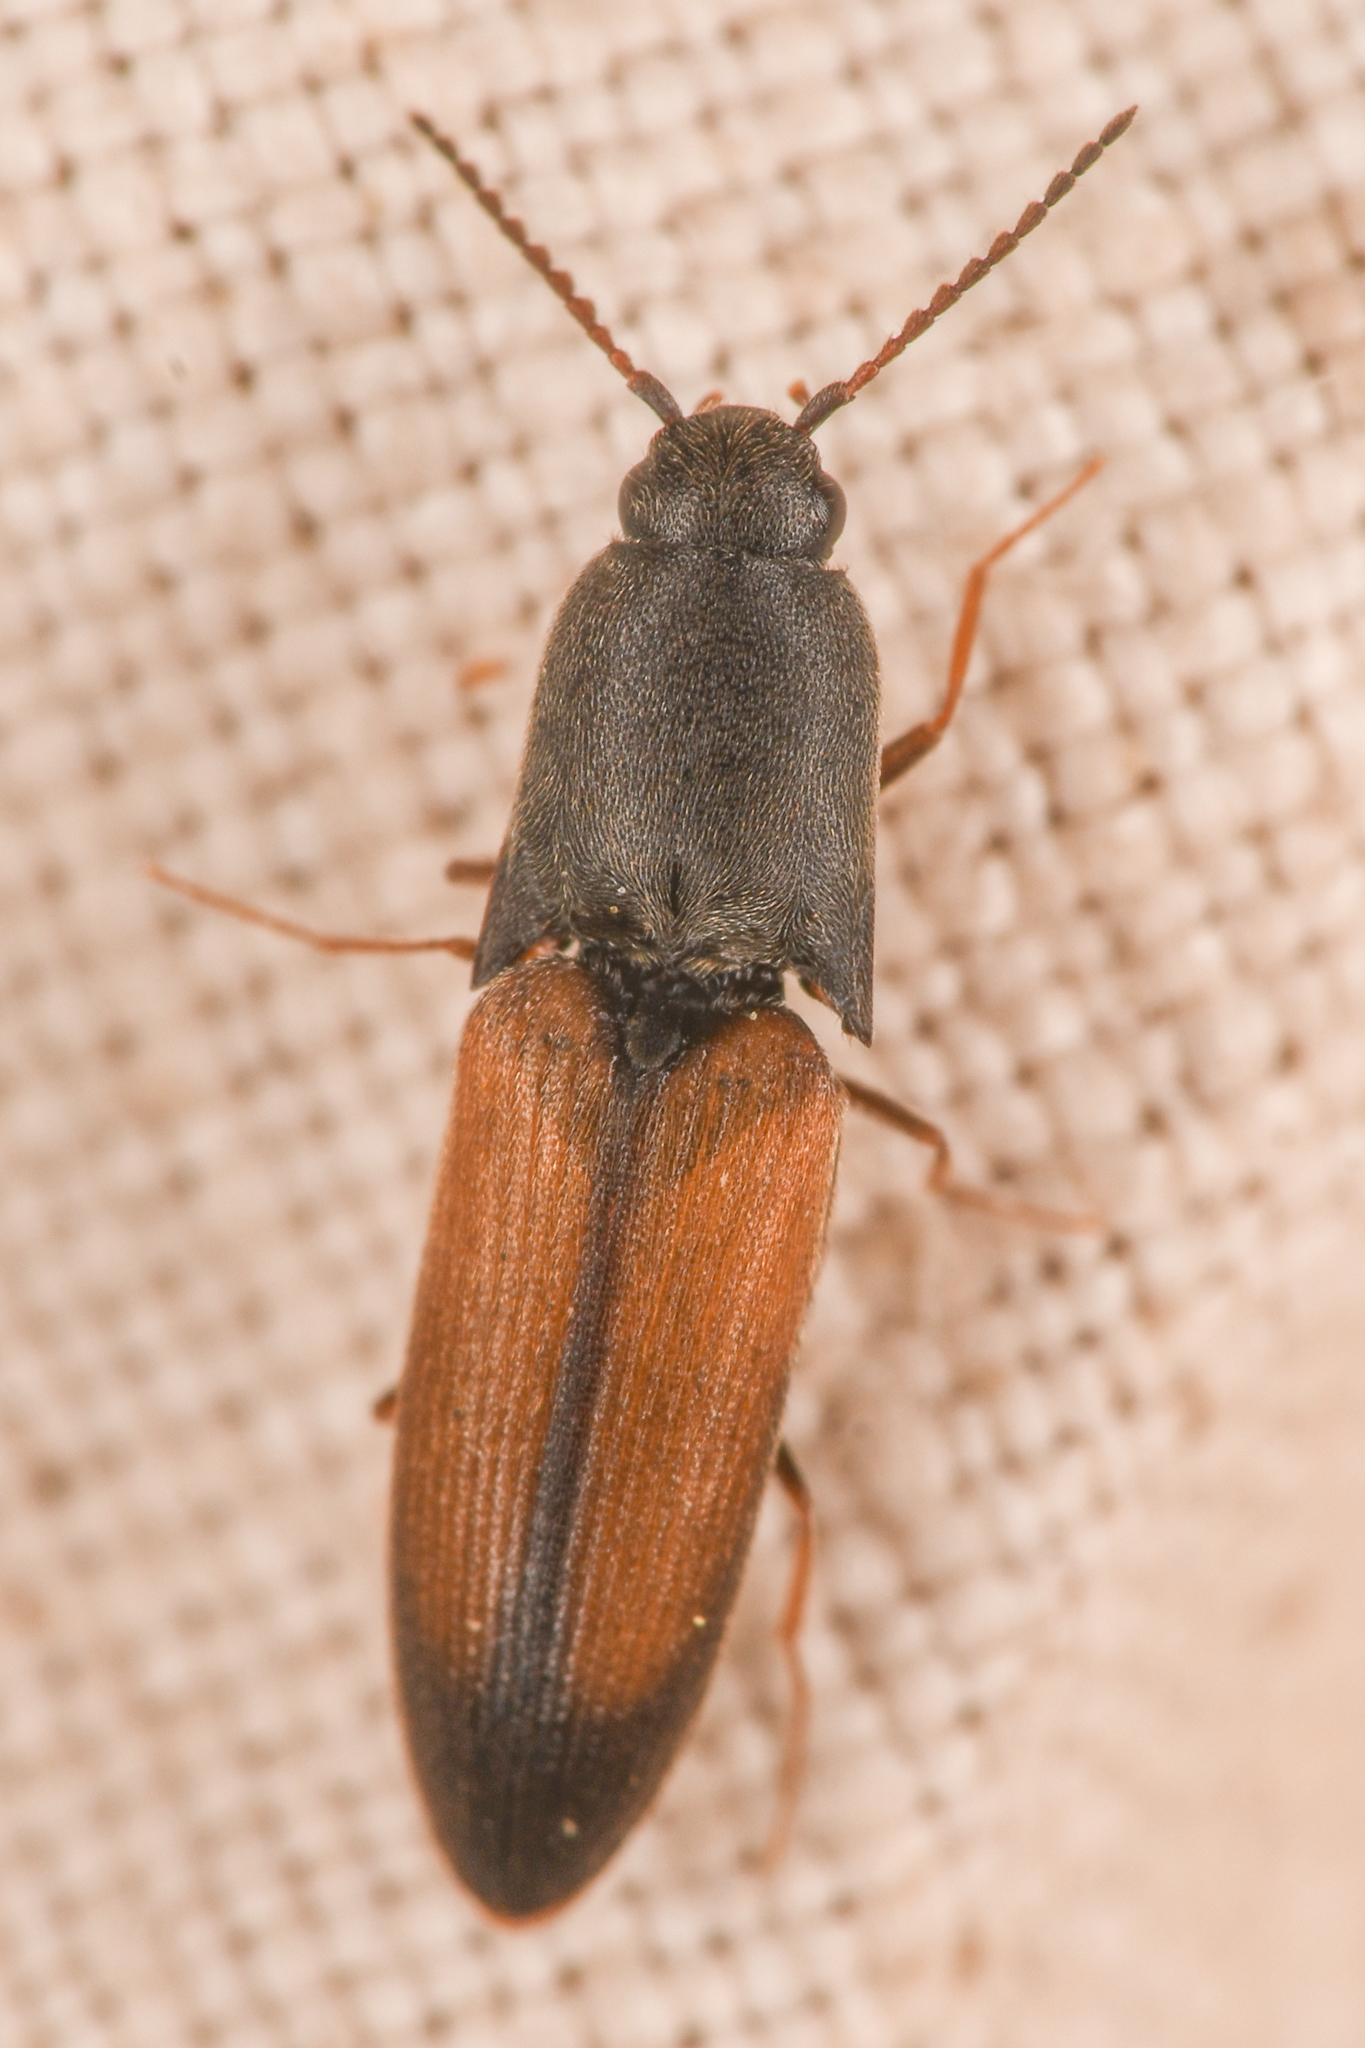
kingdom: Animalia
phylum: Arthropoda
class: Insecta
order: Coleoptera
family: Elateridae
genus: Agriotes
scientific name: Agriotes apicalis
